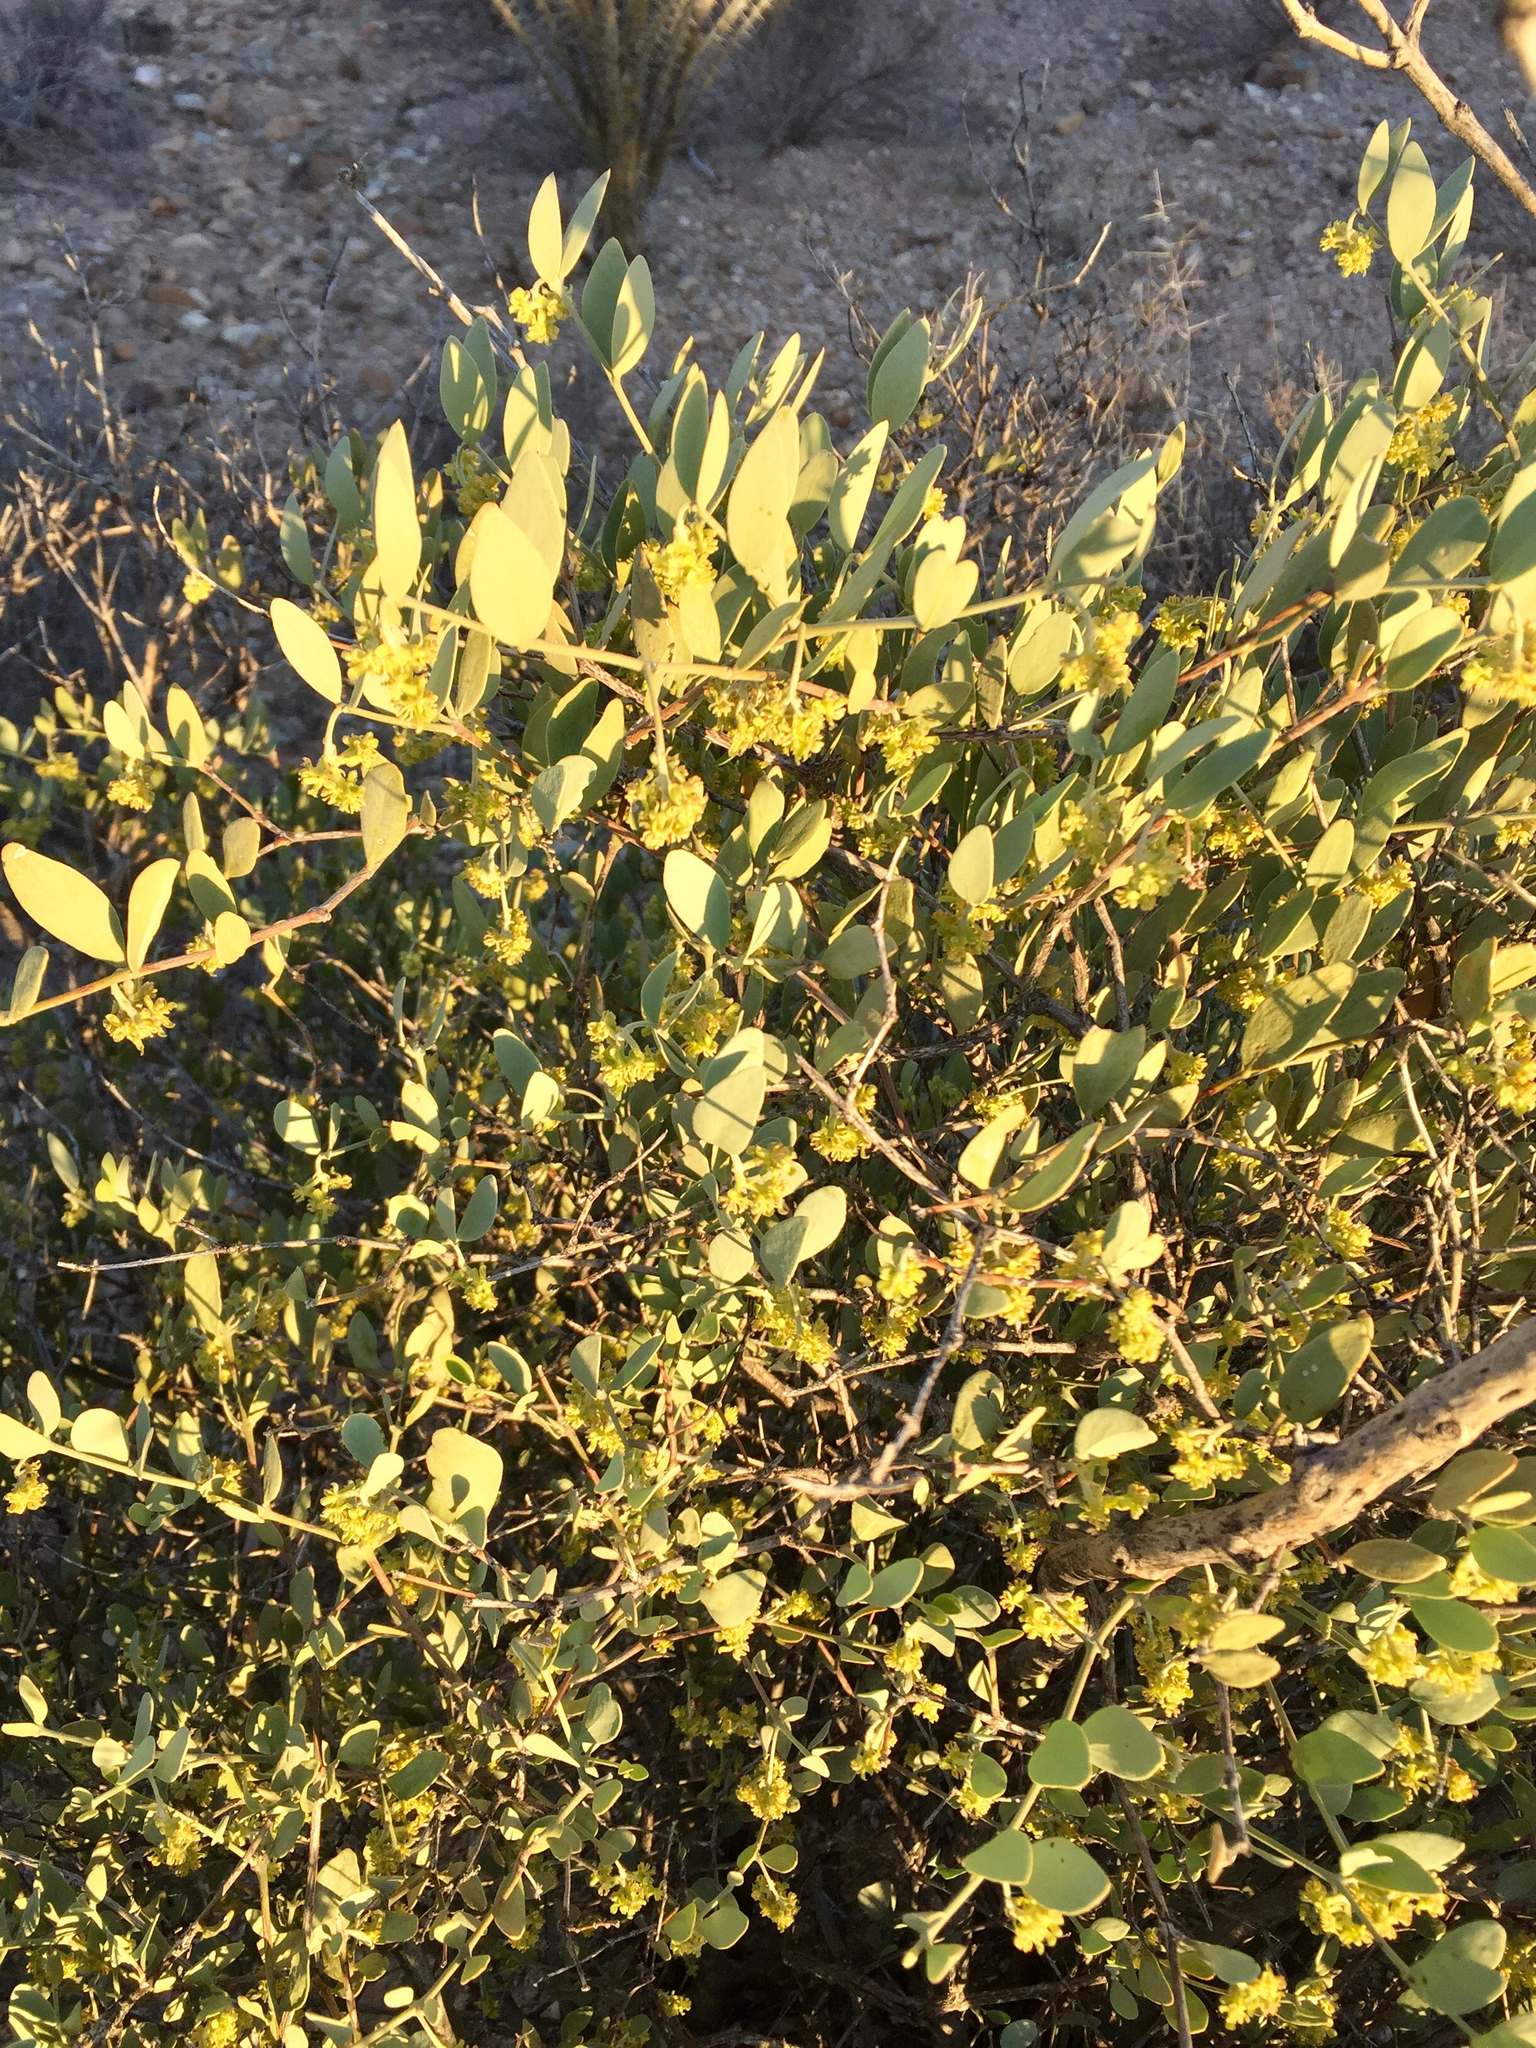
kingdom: Plantae
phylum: Tracheophyta
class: Magnoliopsida
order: Caryophyllales
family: Simmondsiaceae
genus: Simmondsia
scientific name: Simmondsia chinensis
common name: Jojoba
